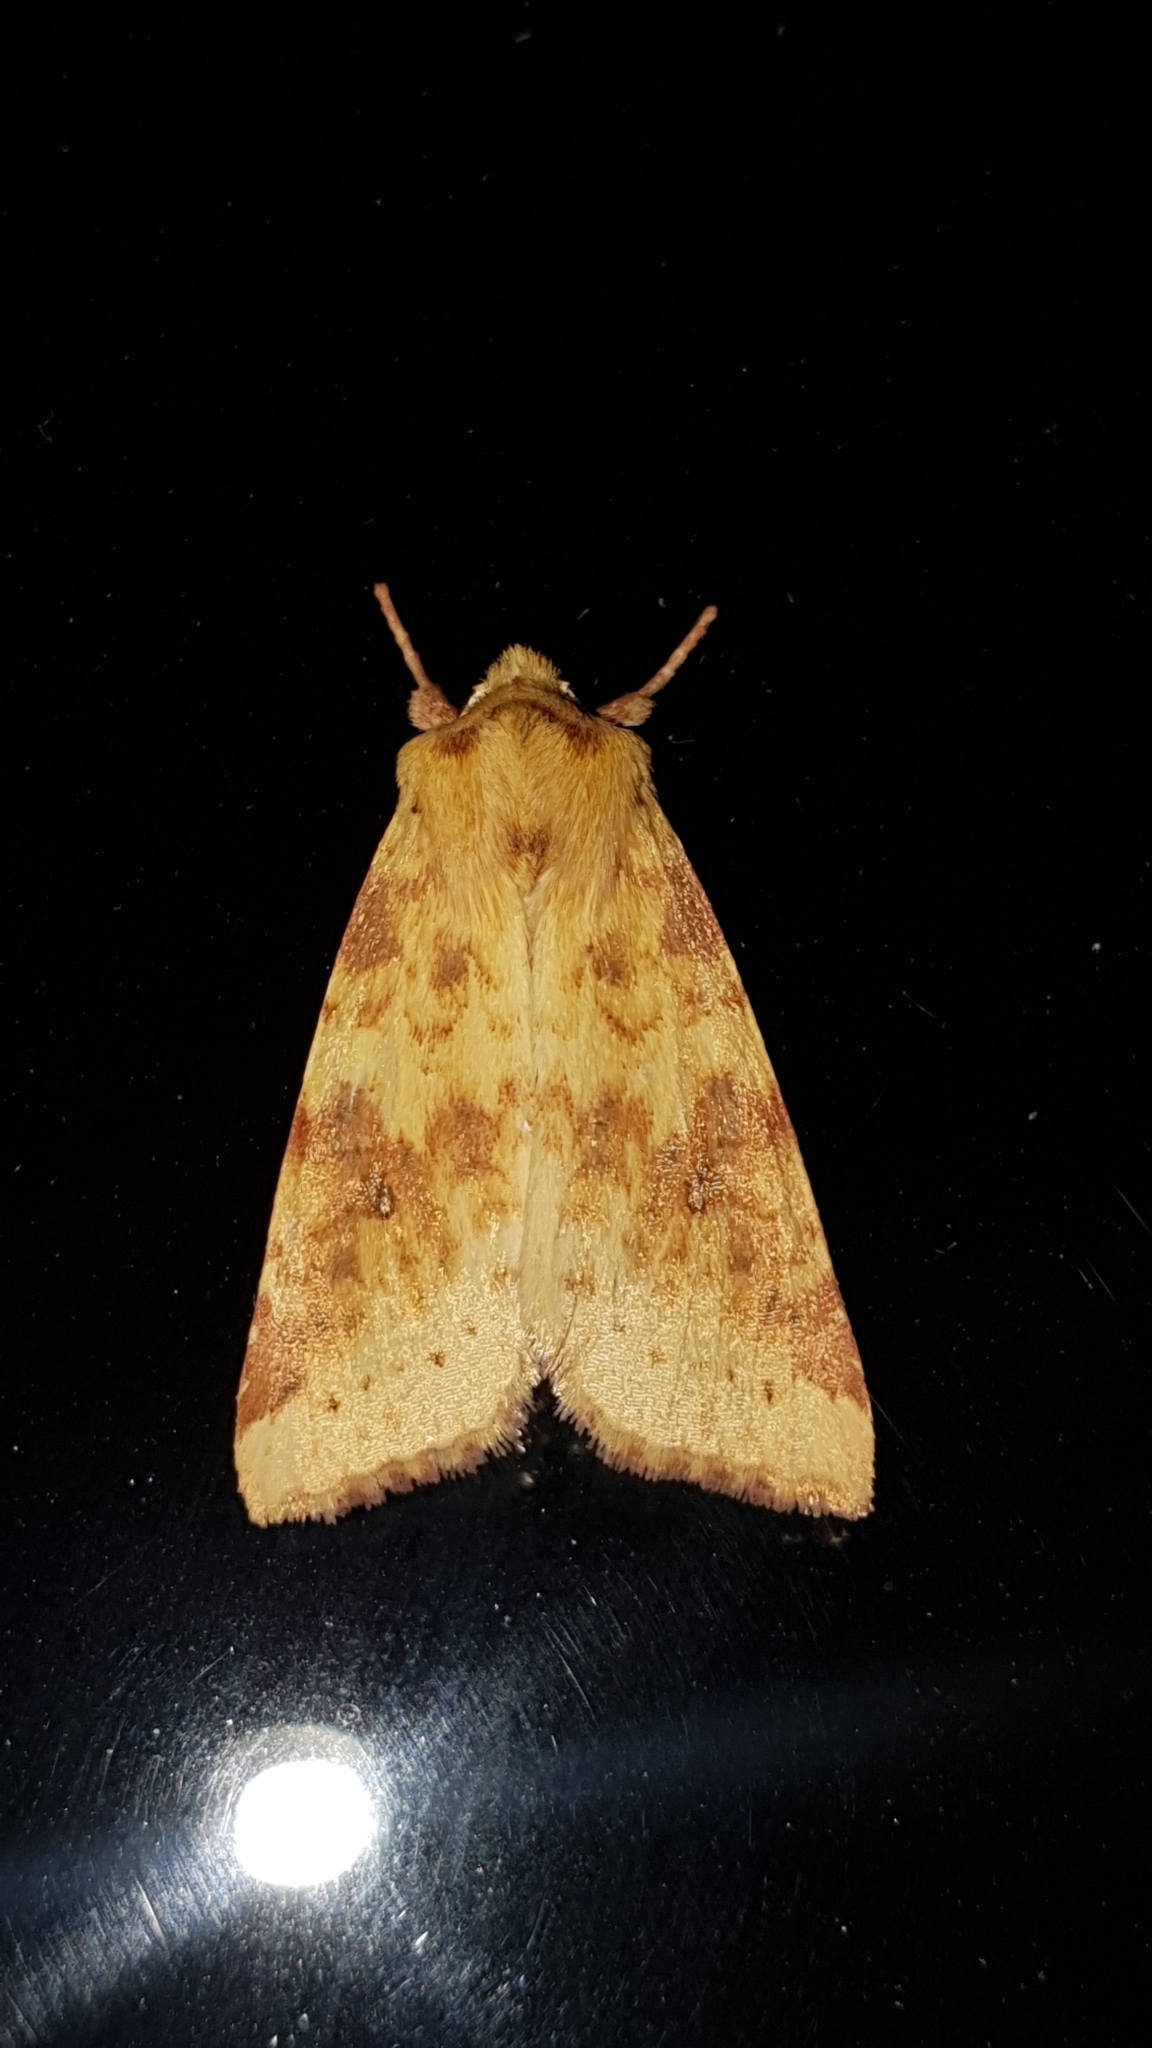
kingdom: Animalia
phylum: Arthropoda
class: Insecta
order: Lepidoptera
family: Noctuidae
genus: Xanthia
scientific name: Xanthia icteritia
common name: The sallow
